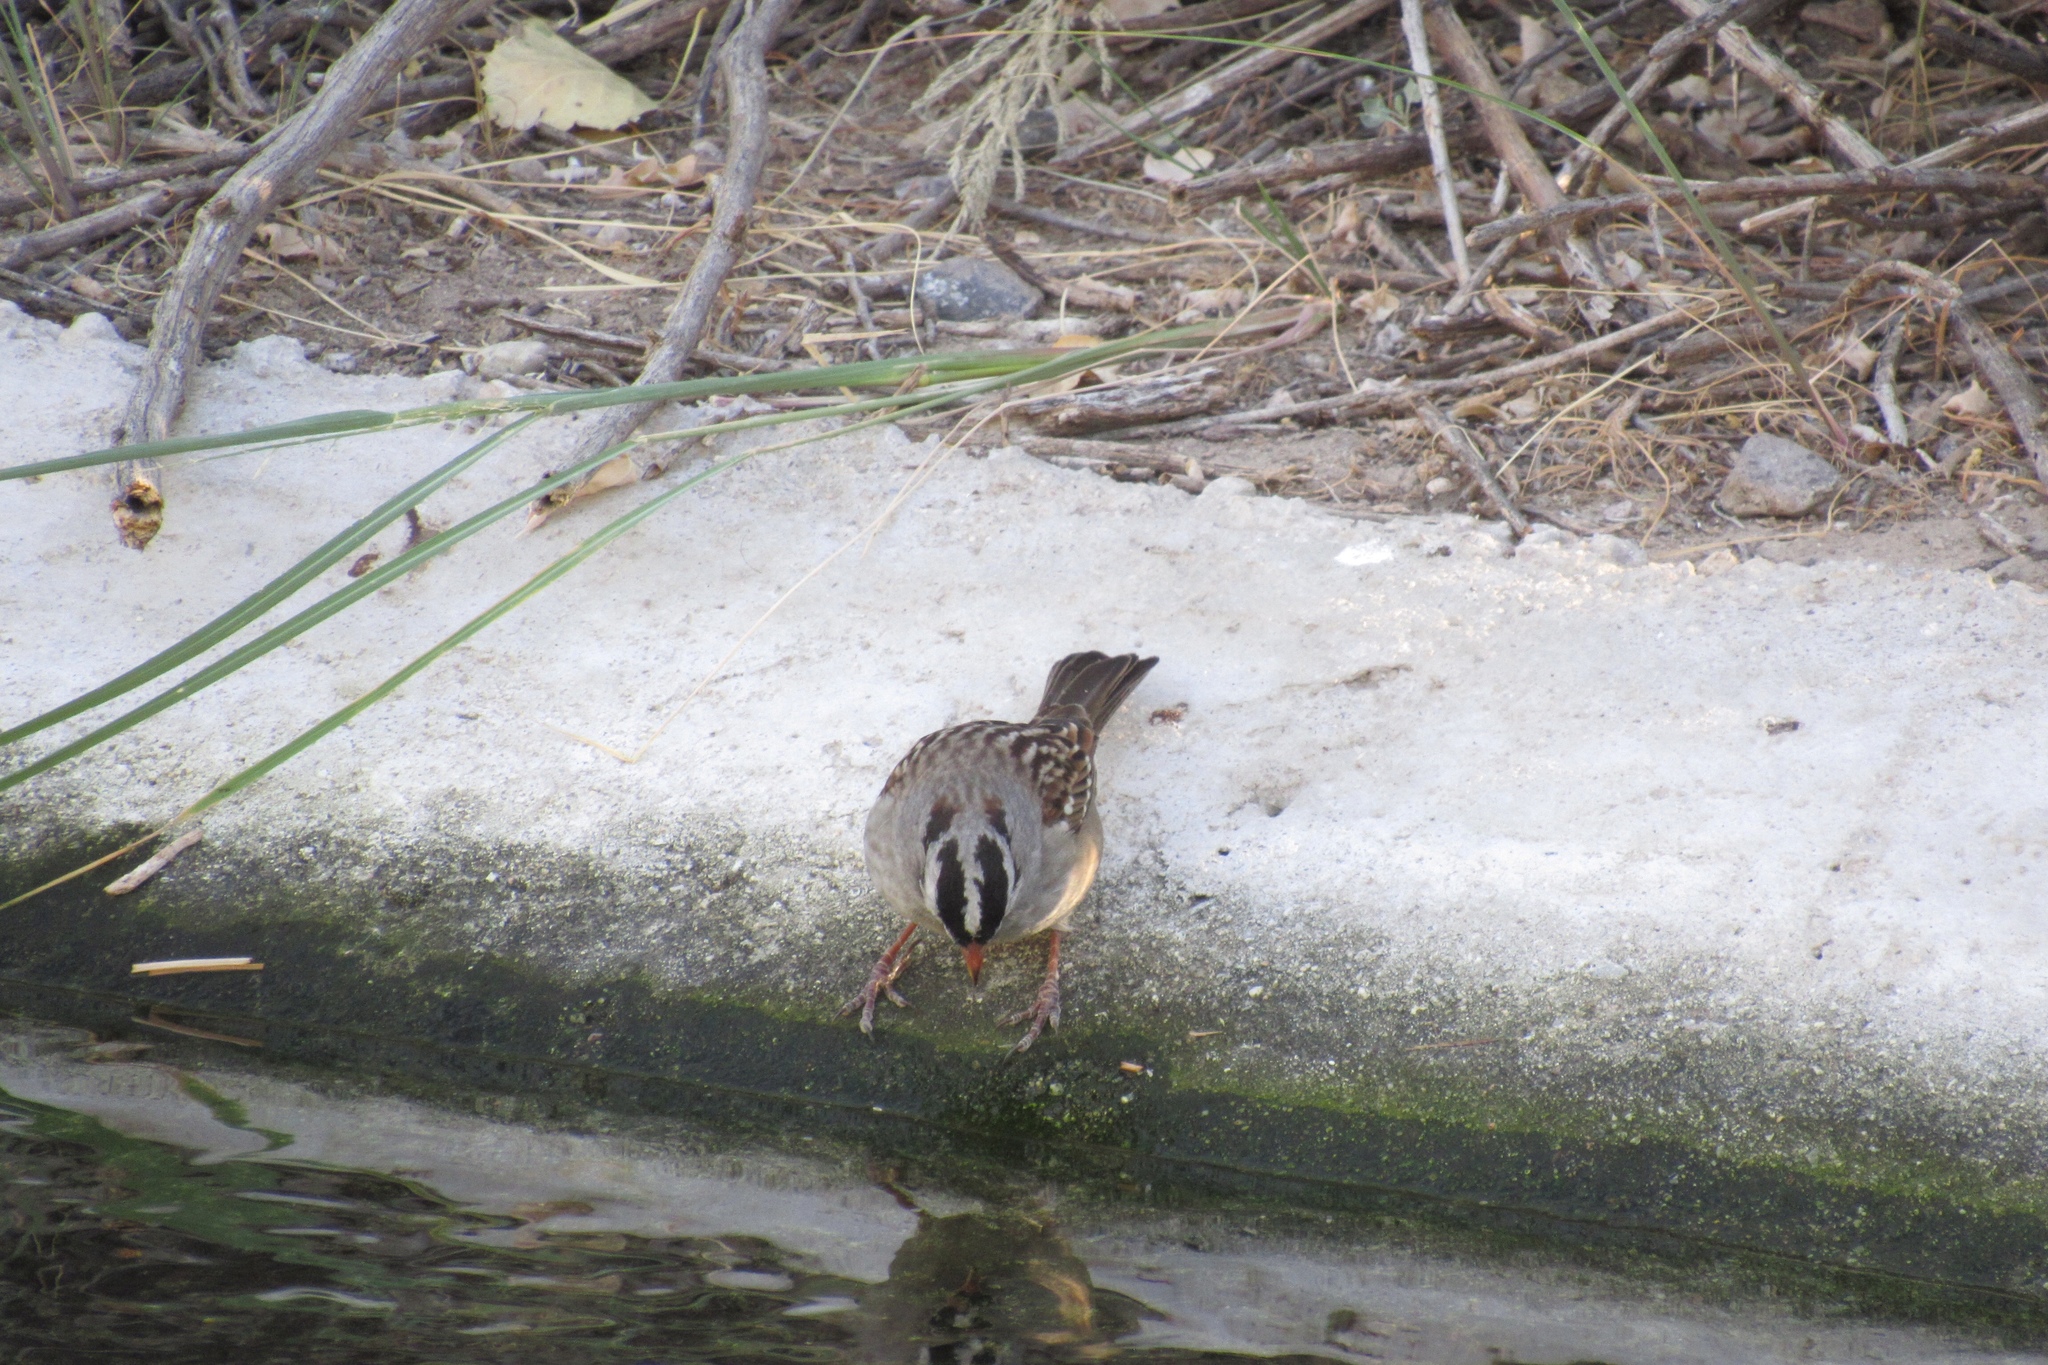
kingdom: Animalia
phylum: Chordata
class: Aves
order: Passeriformes
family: Passerellidae
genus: Zonotrichia
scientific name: Zonotrichia leucophrys
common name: White-crowned sparrow
